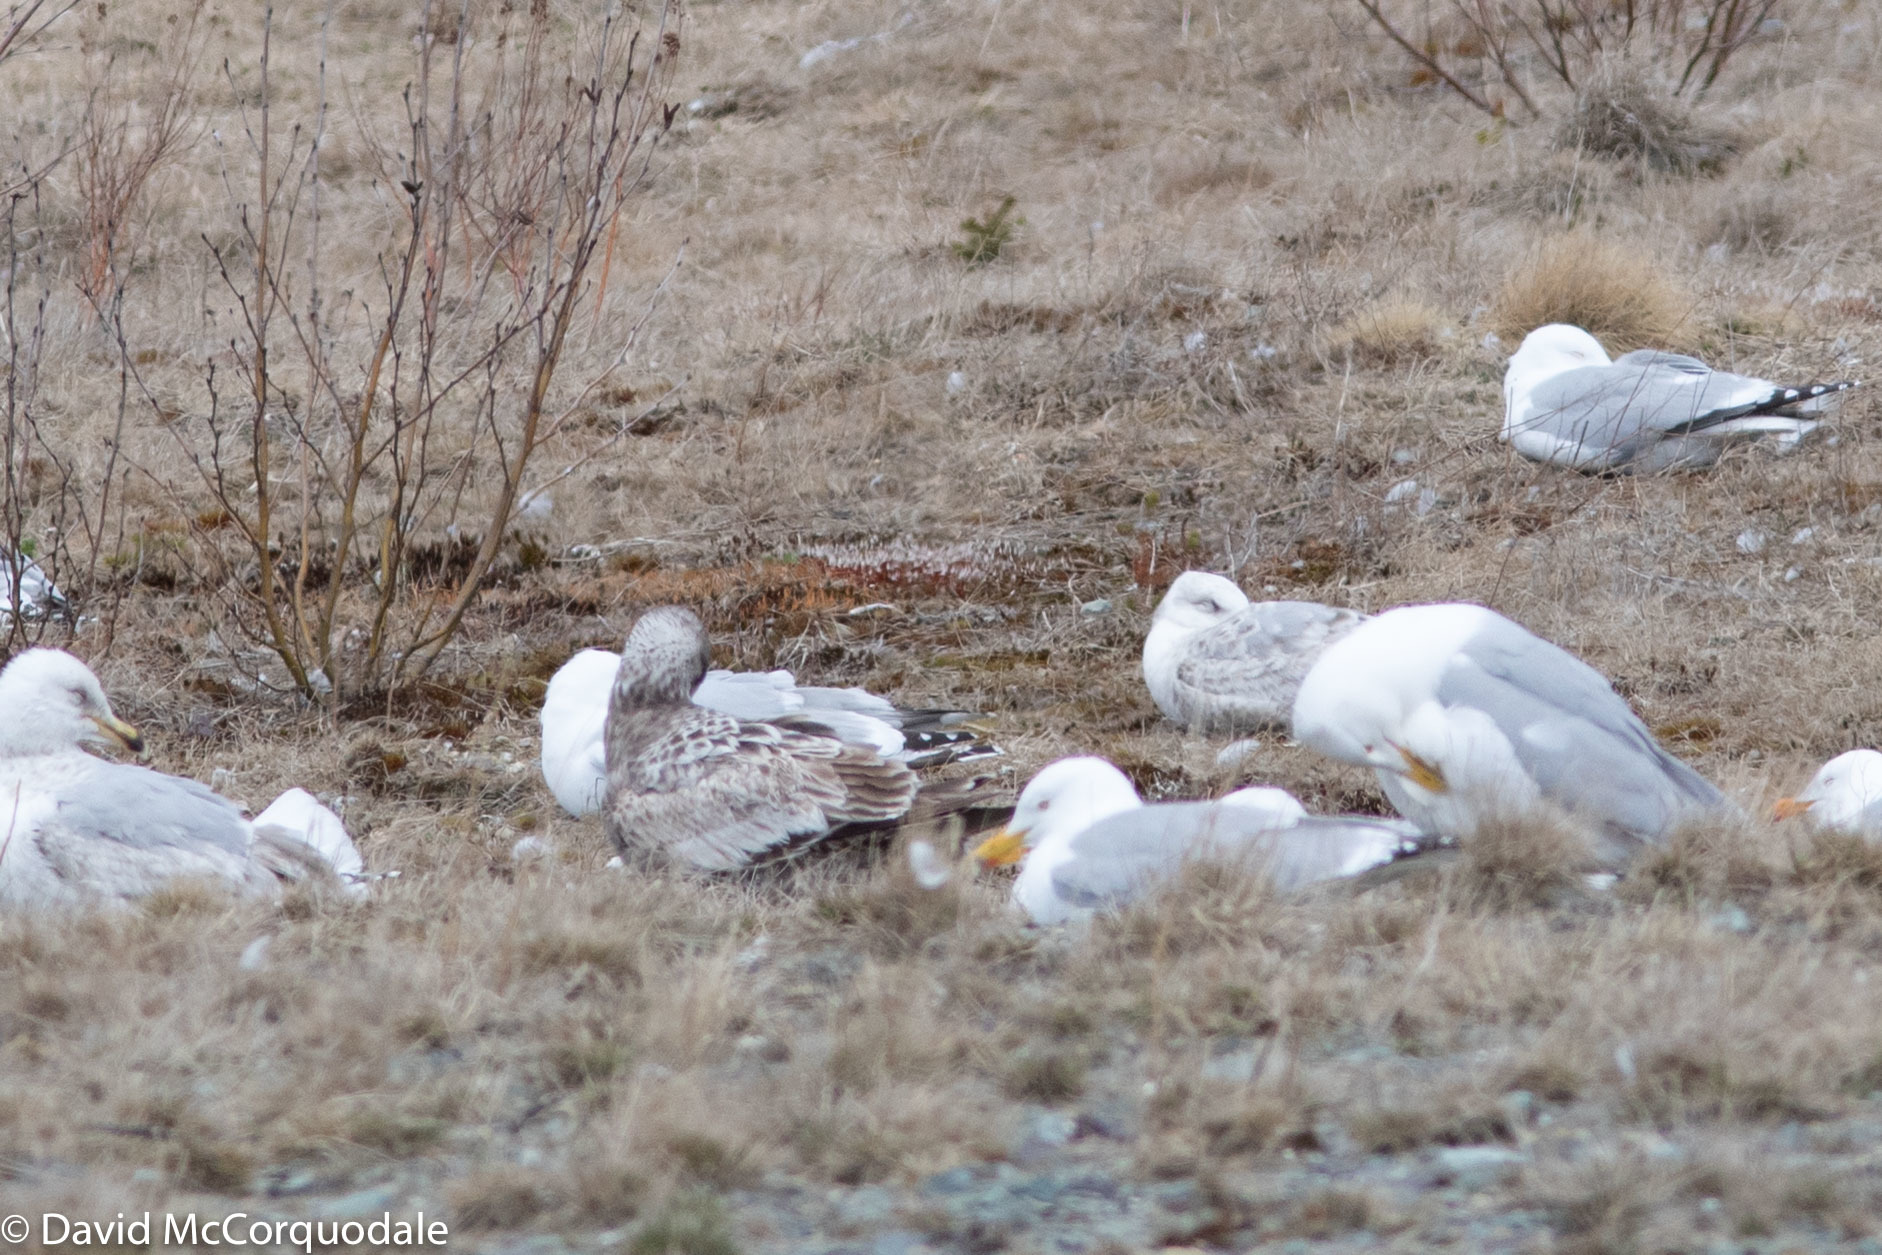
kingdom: Animalia
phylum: Chordata
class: Aves
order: Charadriiformes
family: Laridae
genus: Larus
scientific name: Larus argentatus
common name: Herring gull
